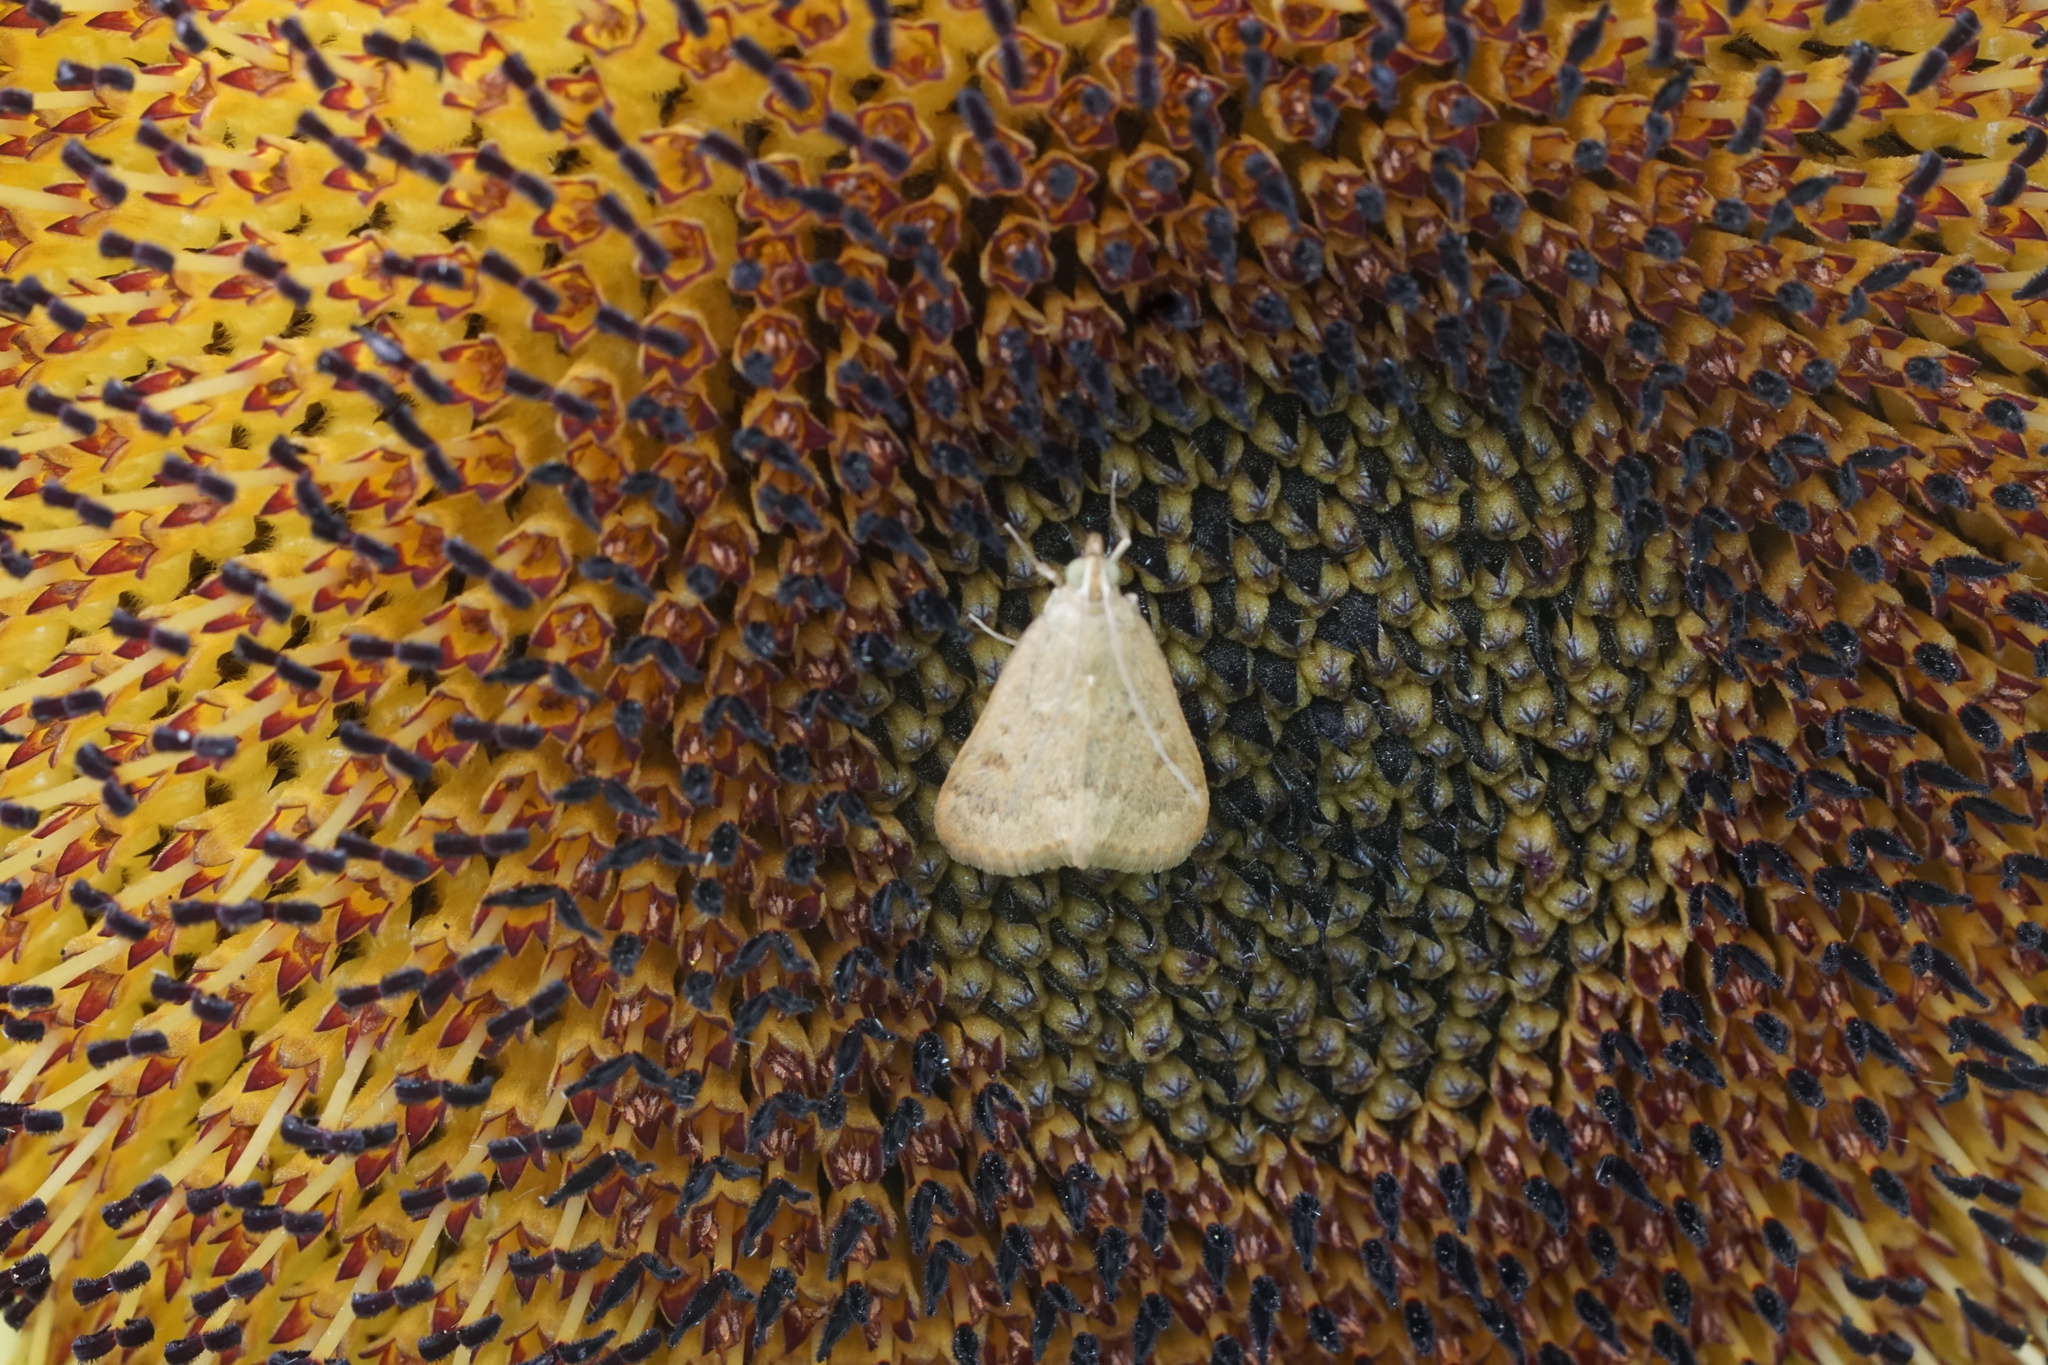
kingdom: Animalia
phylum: Arthropoda
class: Insecta
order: Lepidoptera
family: Crambidae
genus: Achyra
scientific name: Achyra rantalis
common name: Garden webworm
